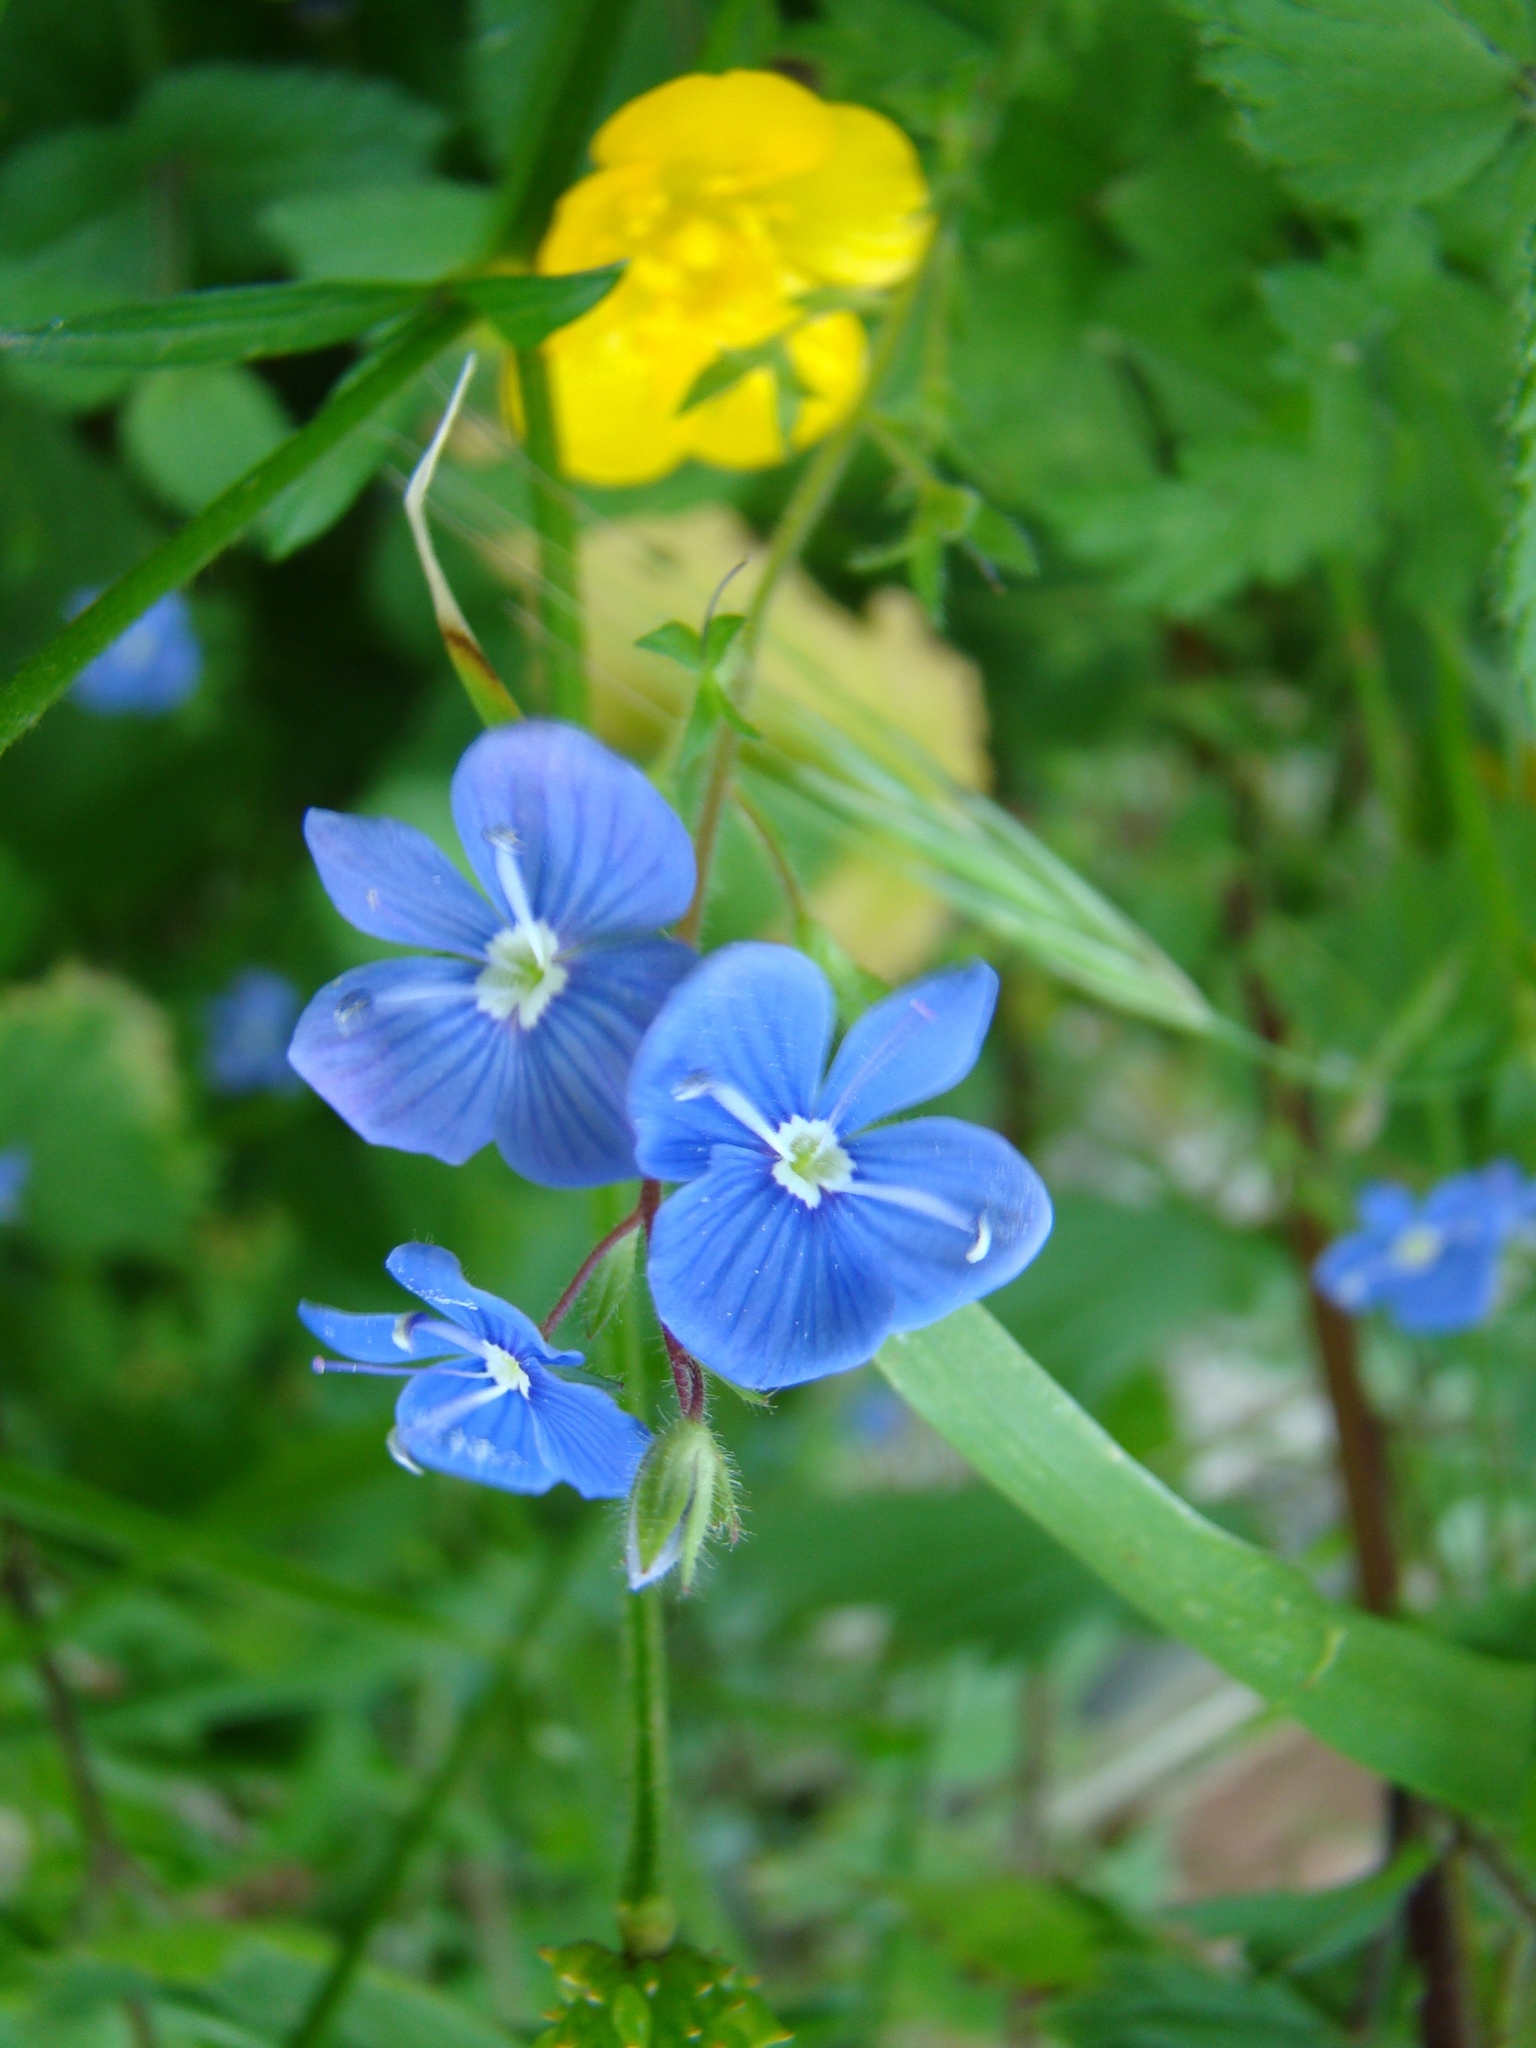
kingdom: Plantae
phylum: Tracheophyta
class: Magnoliopsida
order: Lamiales
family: Plantaginaceae
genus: Veronica
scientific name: Veronica chamaedrys
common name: Germander speedwell
